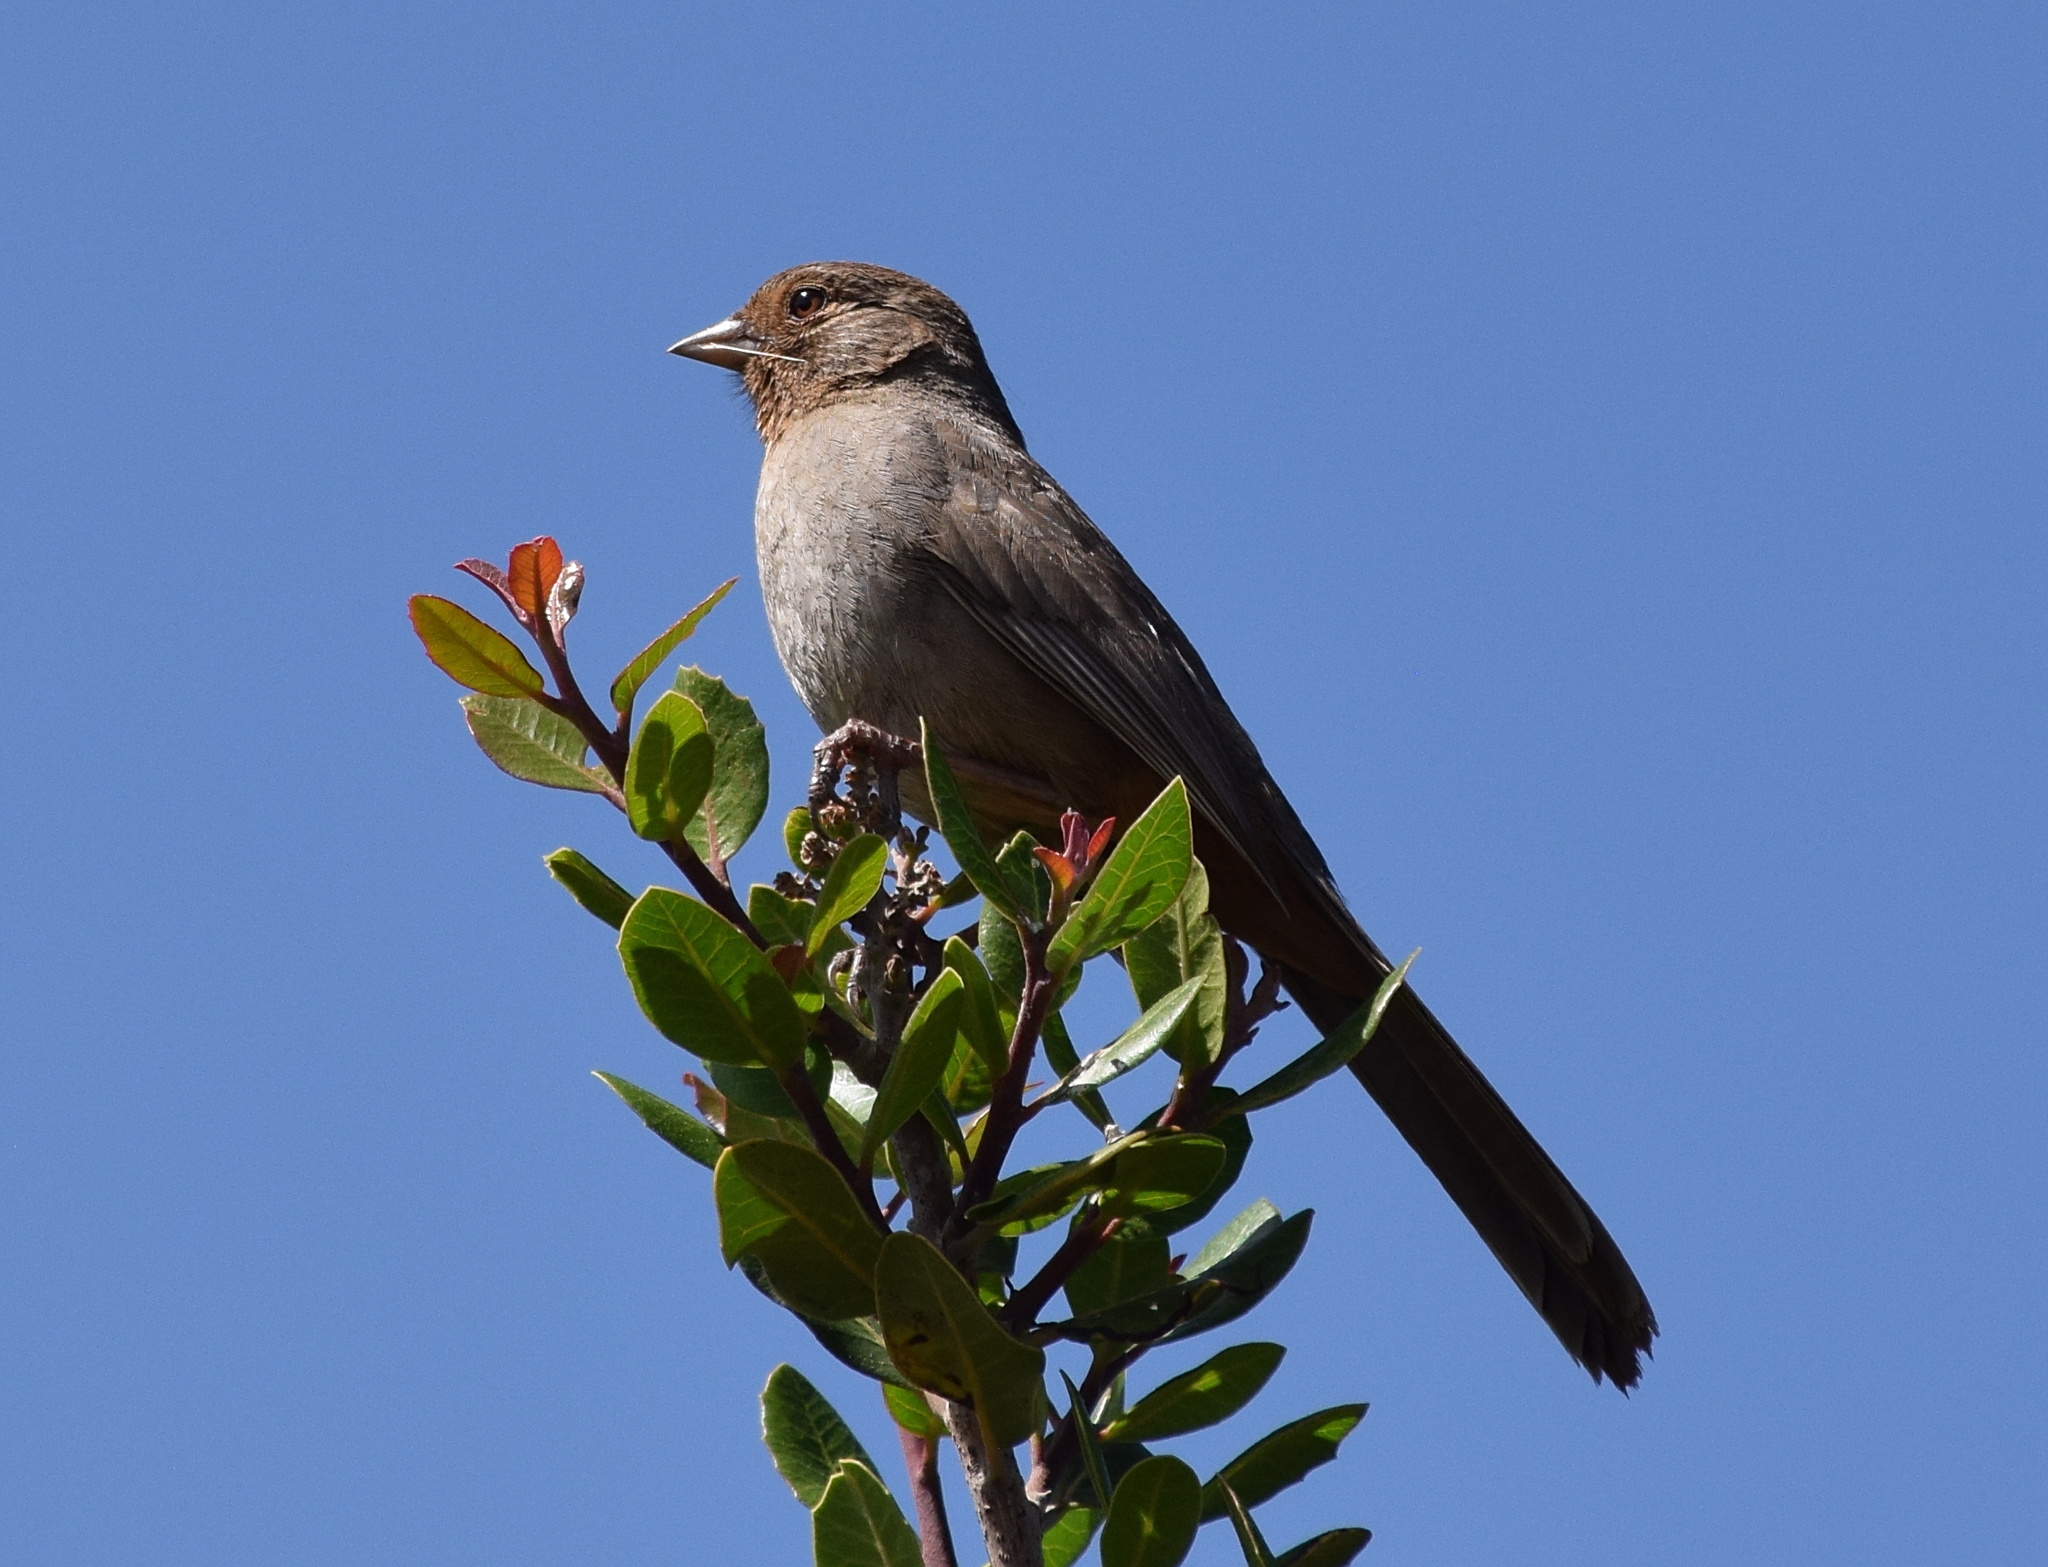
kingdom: Animalia
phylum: Chordata
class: Aves
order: Passeriformes
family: Passerellidae
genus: Melozone
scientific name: Melozone crissalis
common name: California towhee
